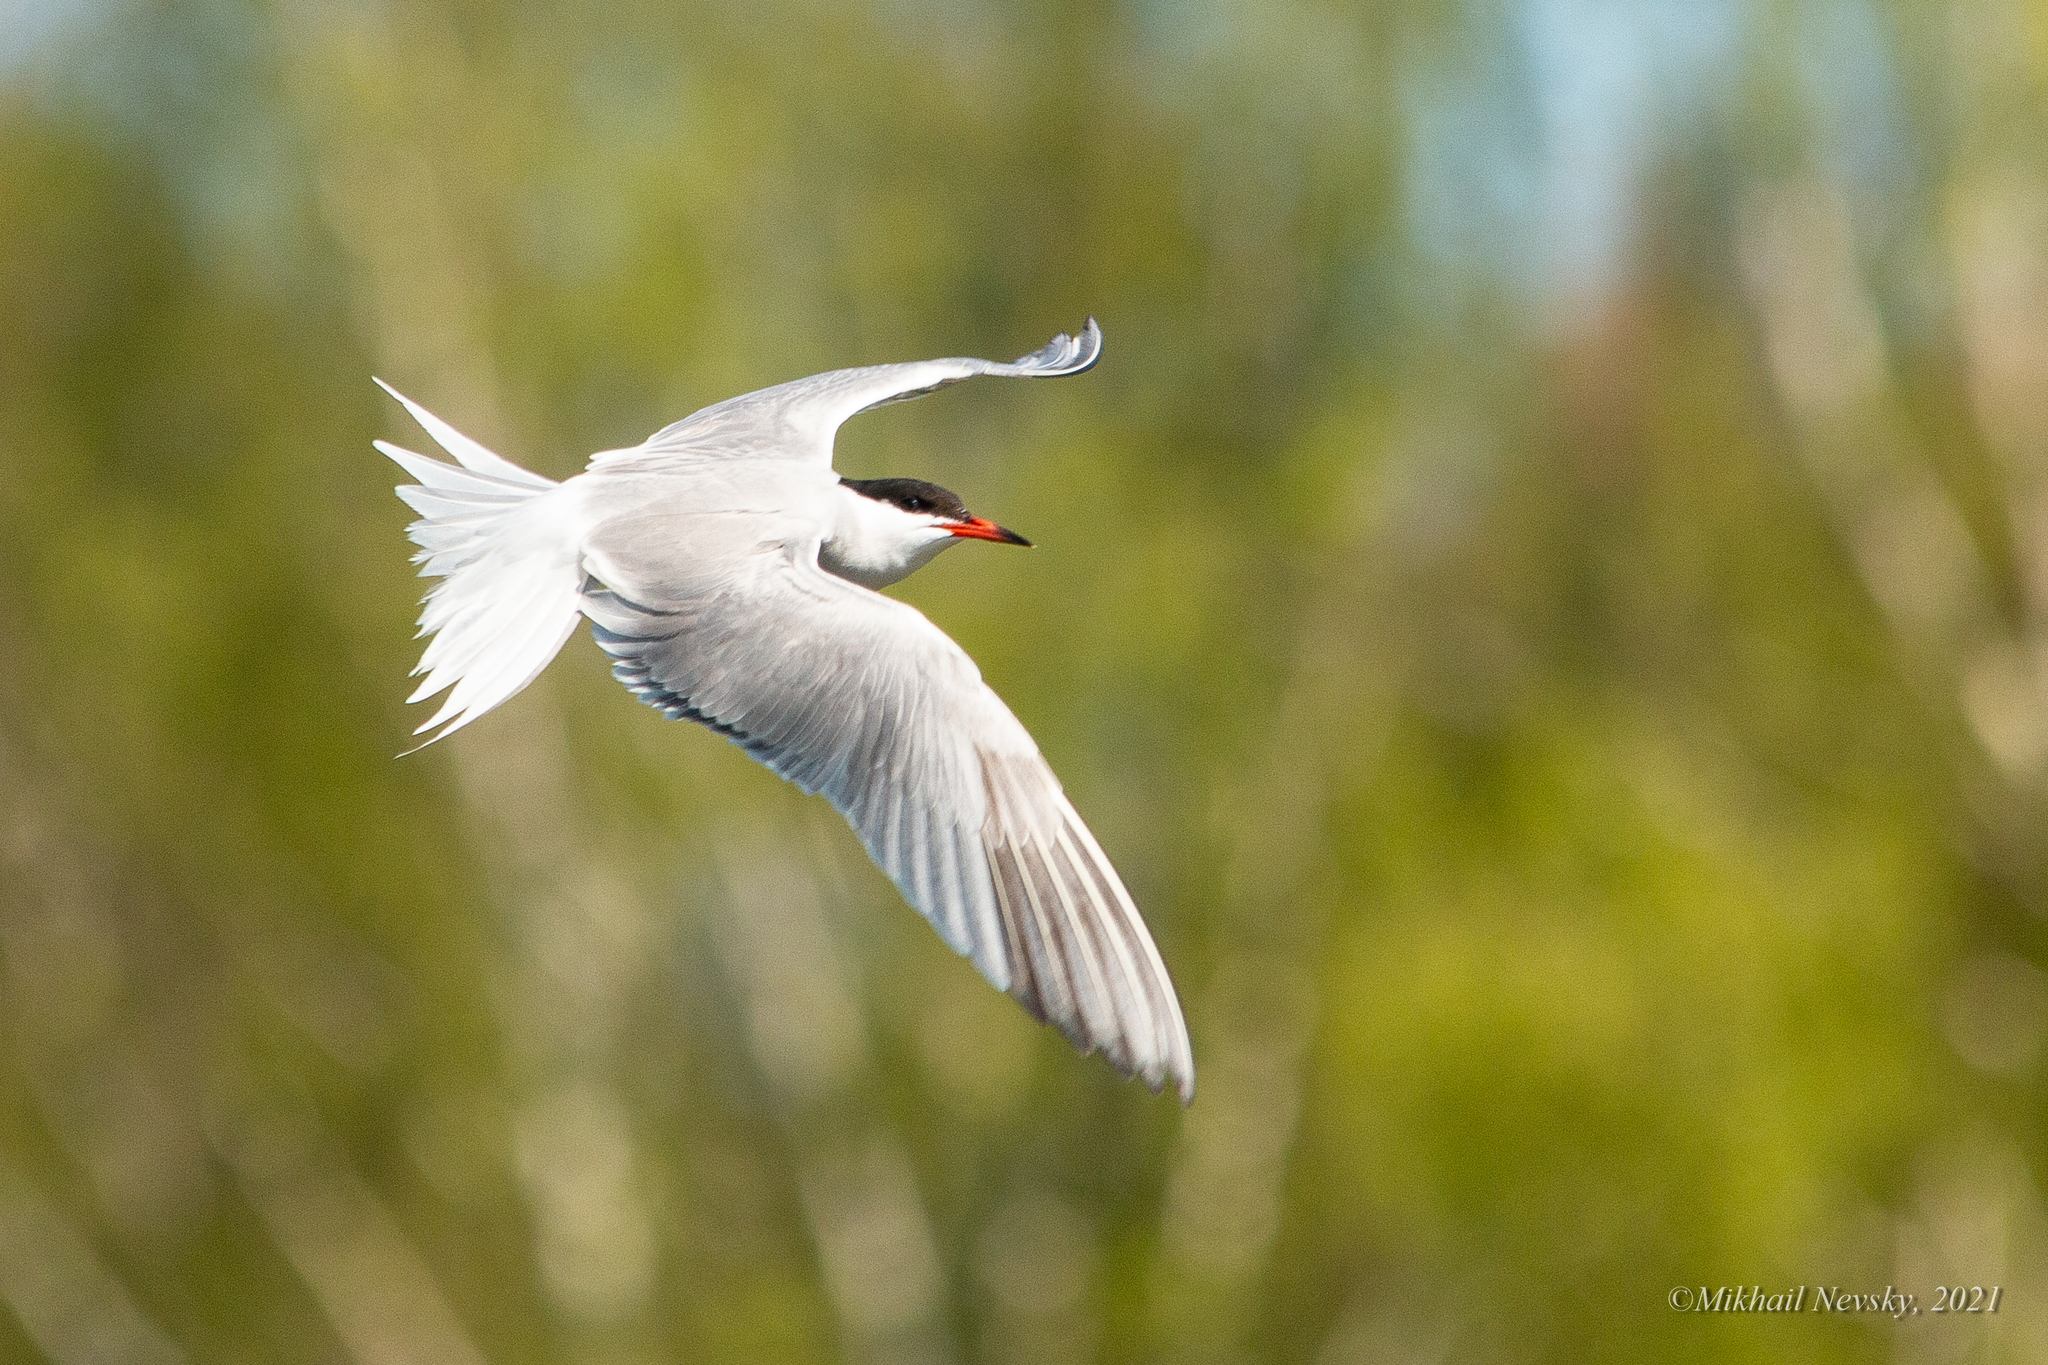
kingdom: Animalia
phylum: Chordata
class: Aves
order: Charadriiformes
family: Laridae
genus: Sterna
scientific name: Sterna hirundo
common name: Common tern
